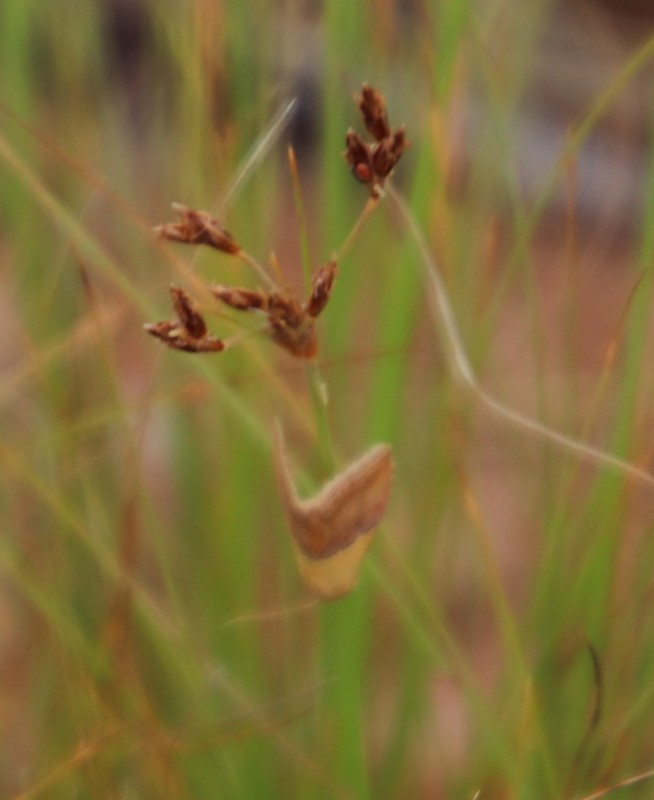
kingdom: Plantae
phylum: Tracheophyta
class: Liliopsida
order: Poales
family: Cyperaceae
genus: Bulbostylis
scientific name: Bulbostylis burchellii
